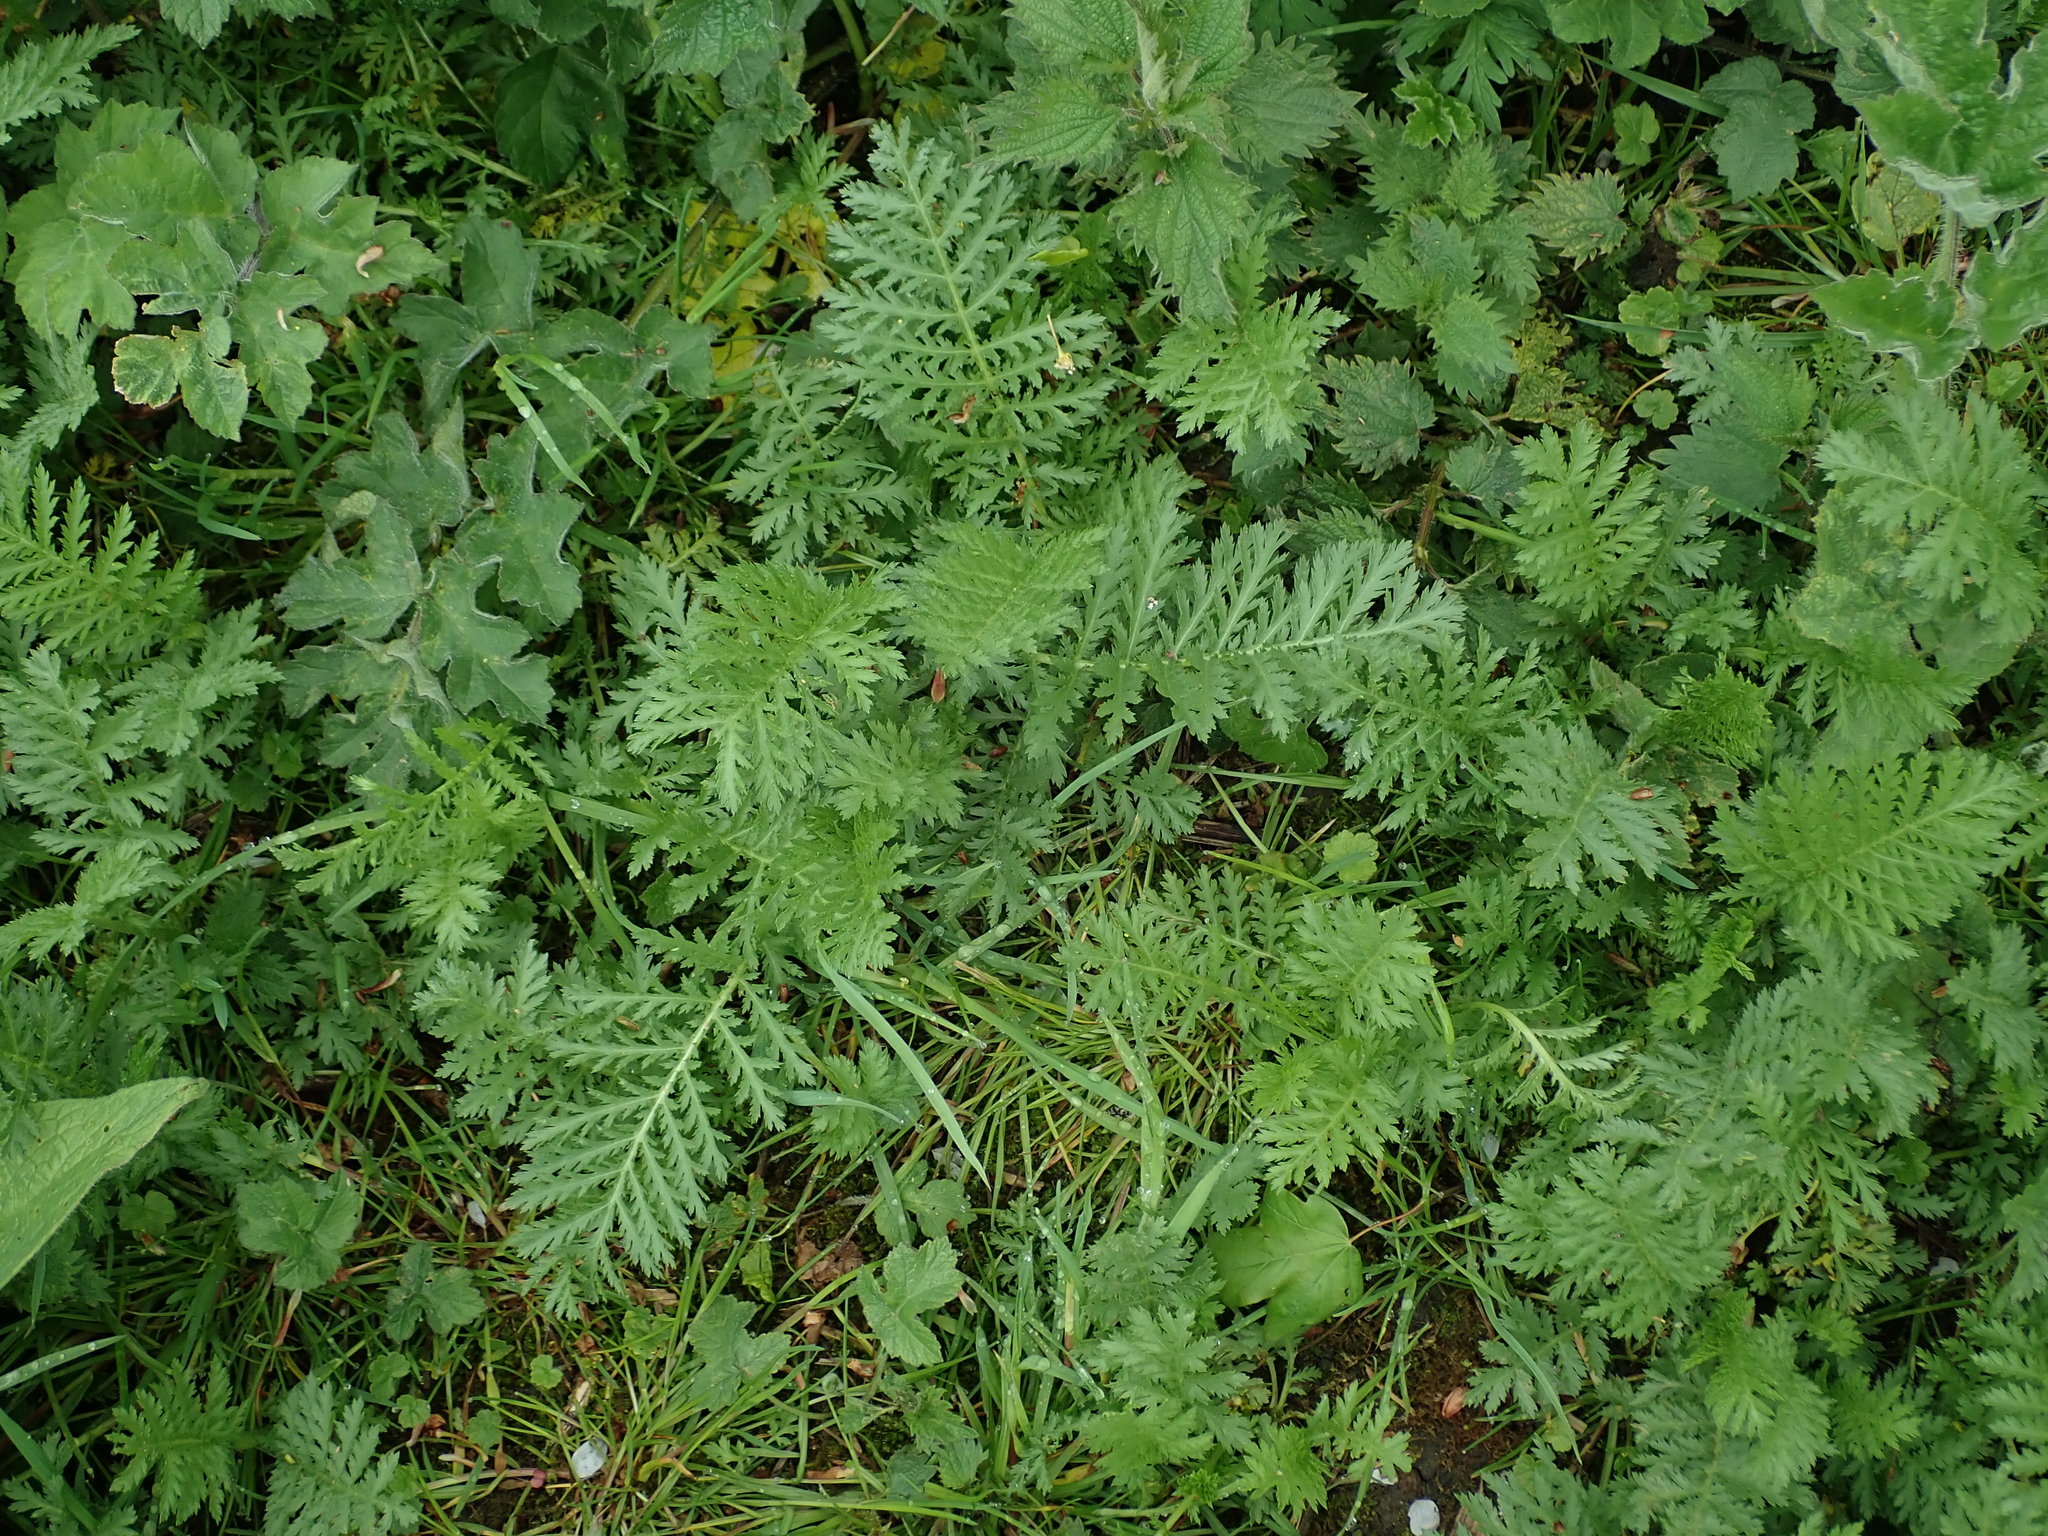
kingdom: Plantae
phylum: Tracheophyta
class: Magnoliopsida
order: Asterales
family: Asteraceae
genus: Tanacetum
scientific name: Tanacetum vulgare
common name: Common tansy
